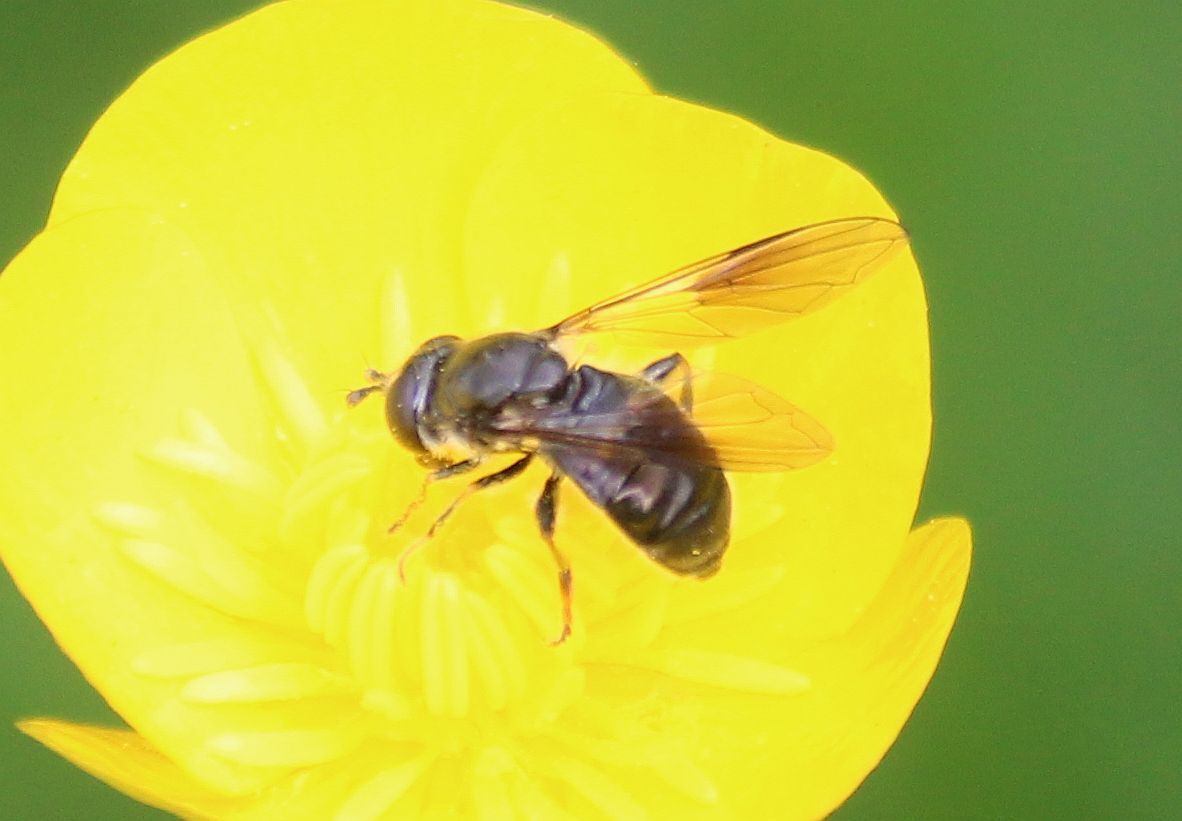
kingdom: Animalia
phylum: Arthropoda
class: Insecta
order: Diptera
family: Syrphidae
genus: Pipiza
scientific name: Pipiza
